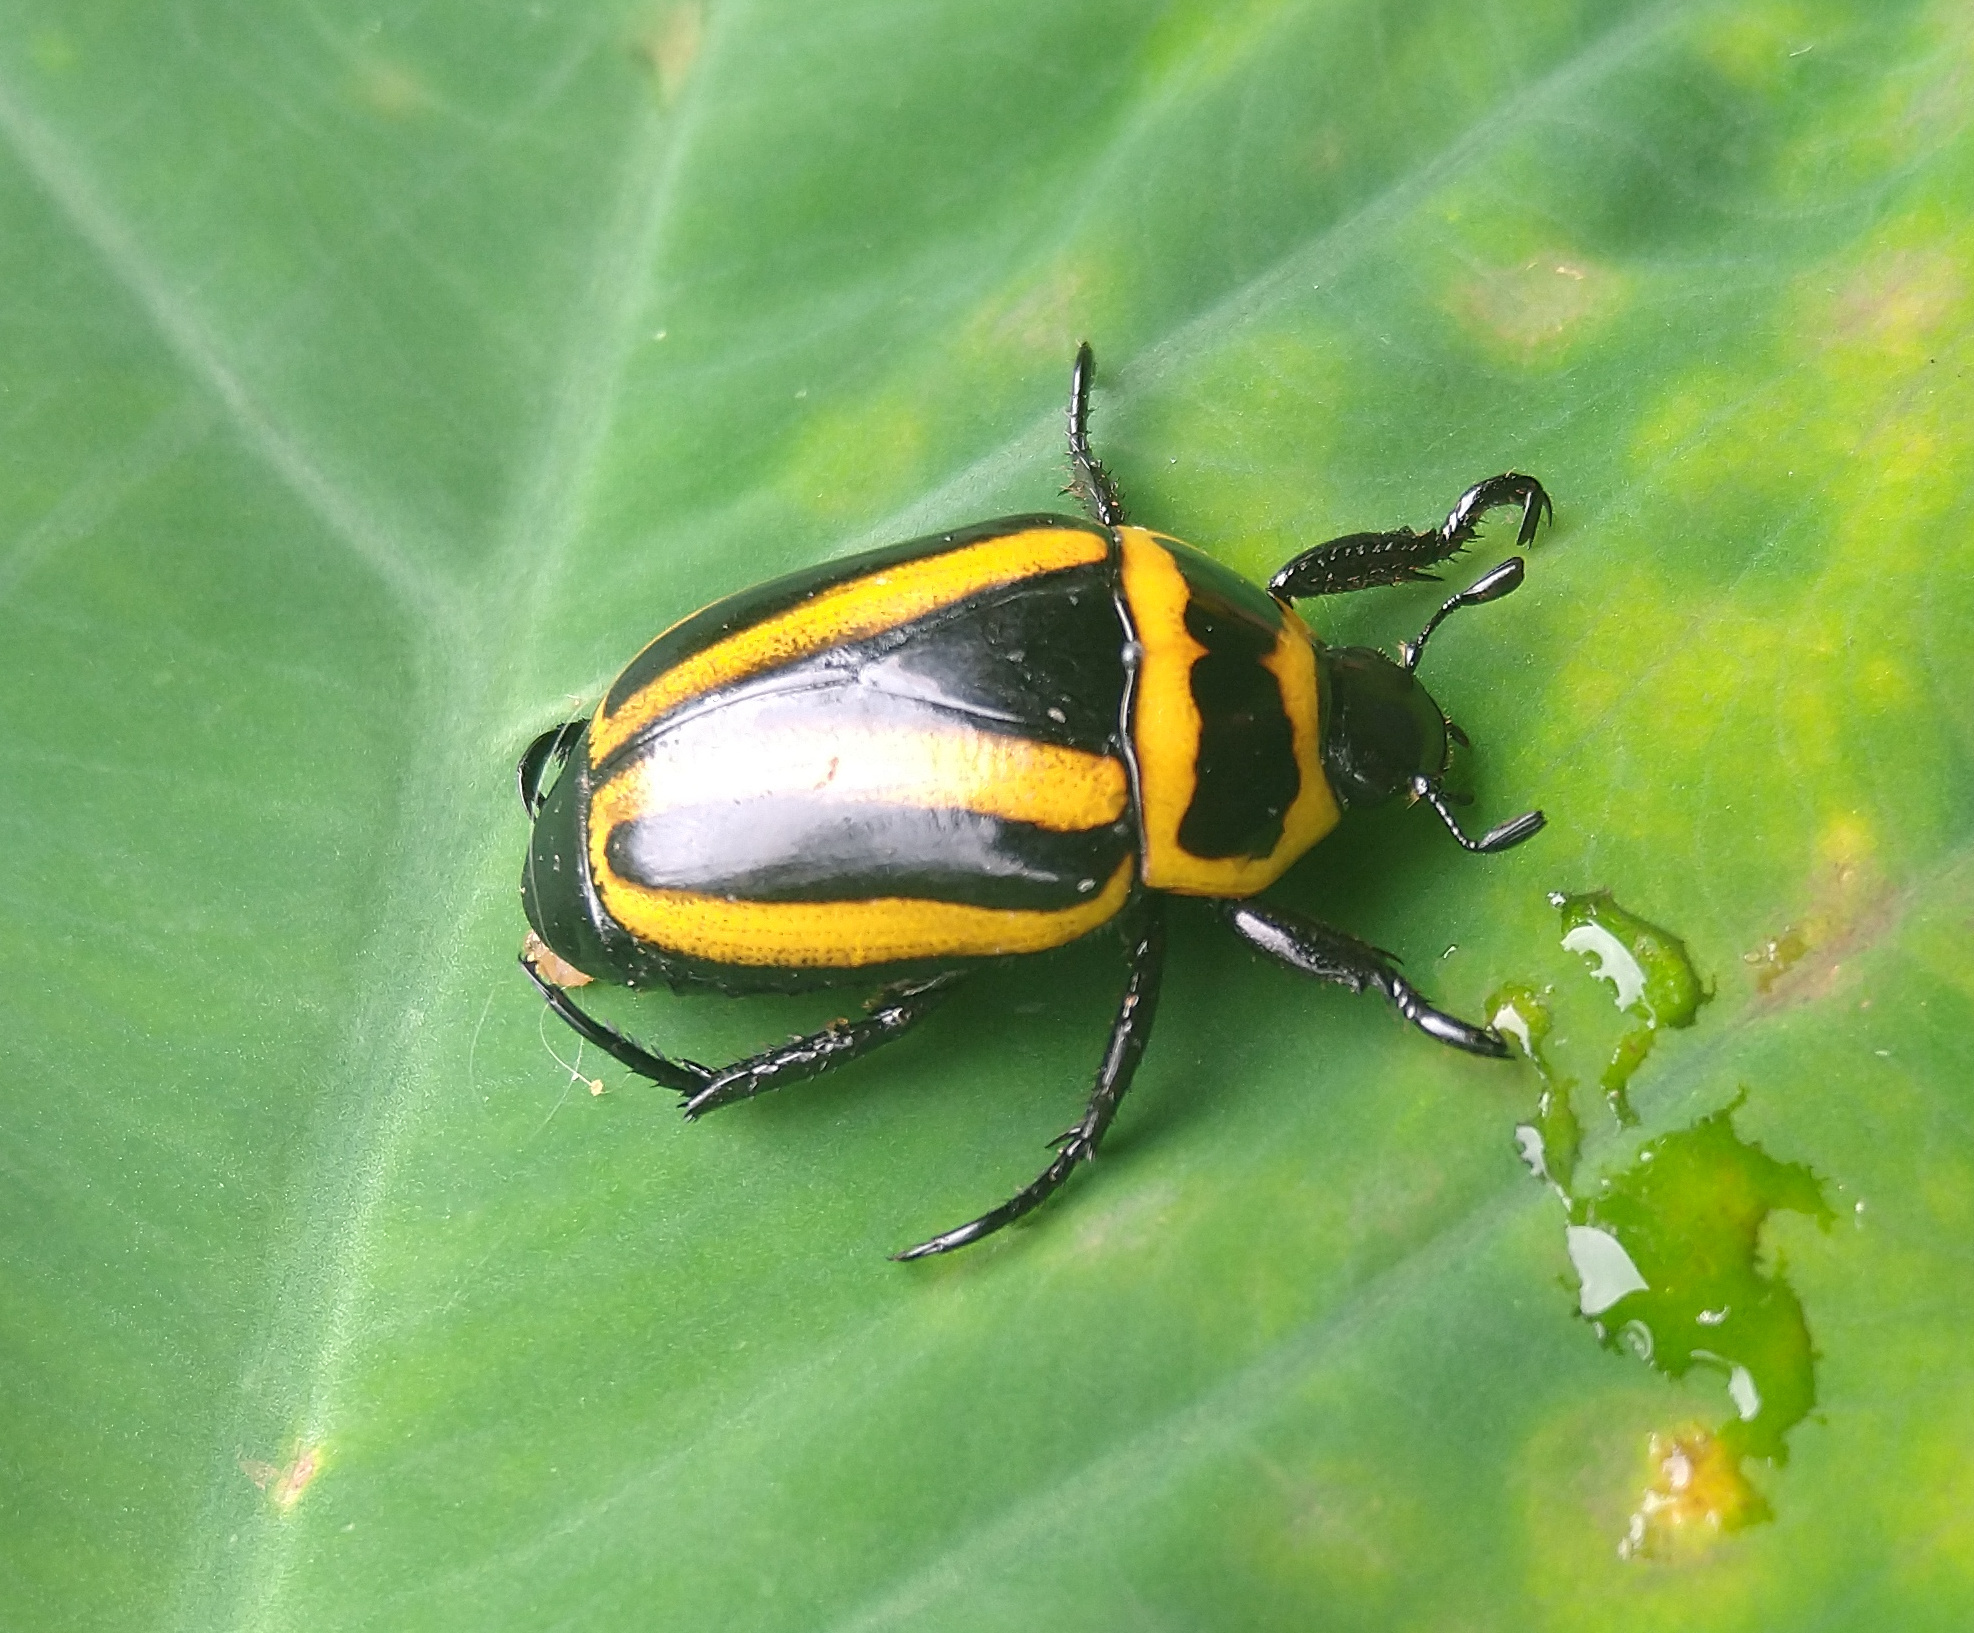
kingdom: Animalia
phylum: Arthropoda
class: Insecta
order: Coleoptera
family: Scarabaeidae
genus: Macraspis
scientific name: Macraspis cincta
